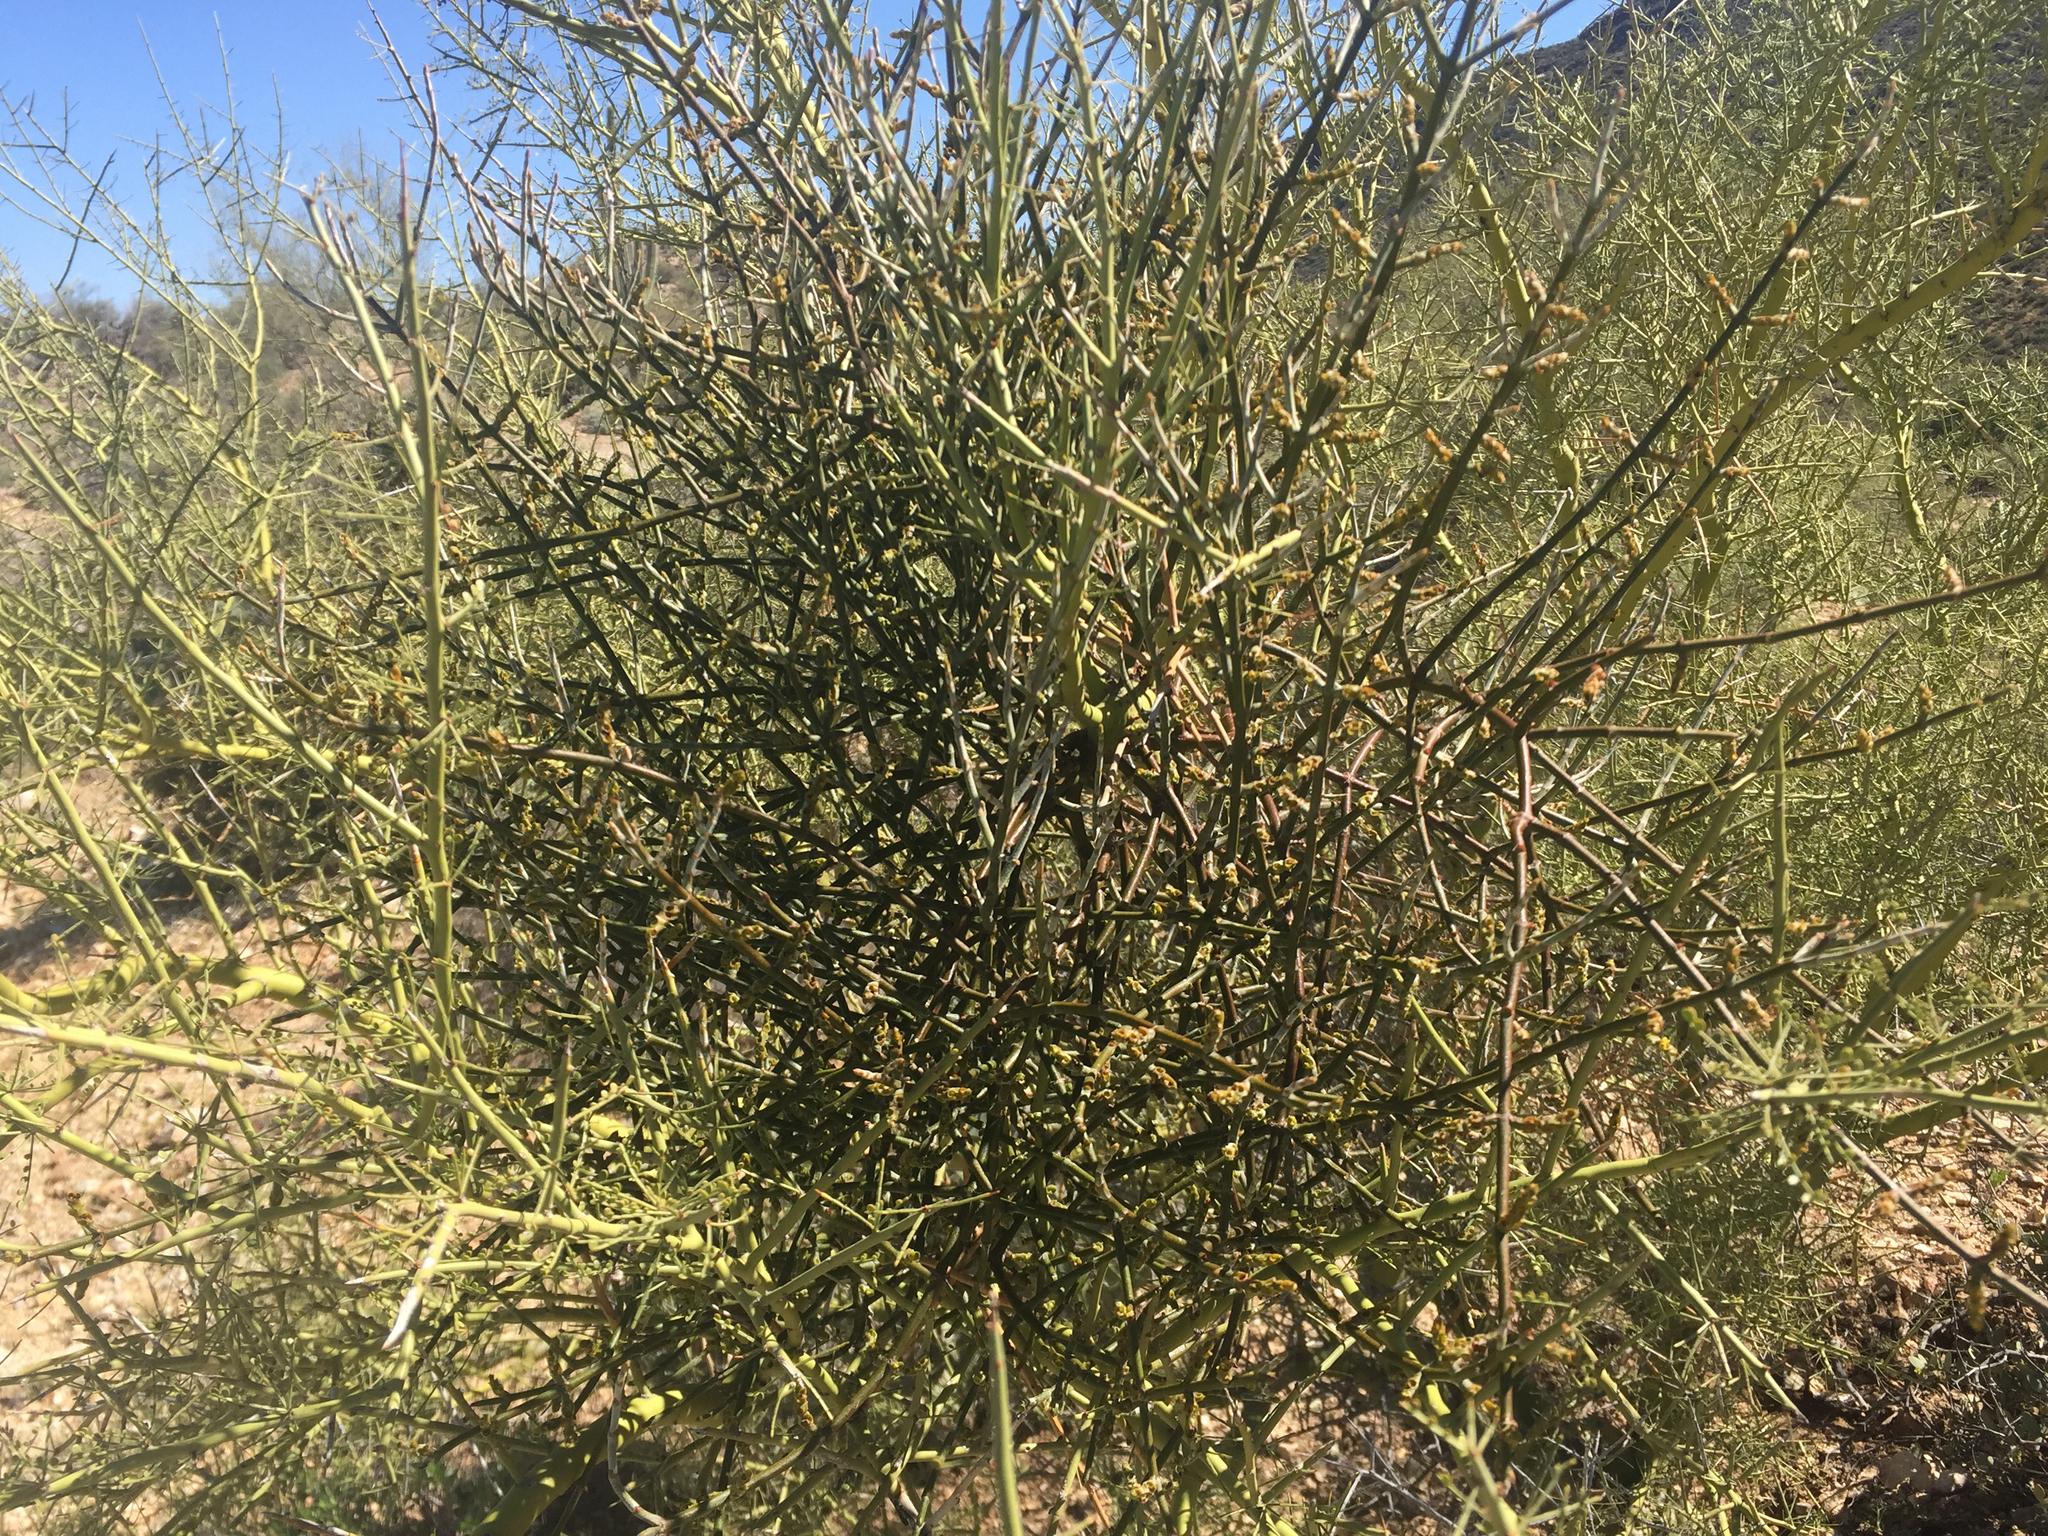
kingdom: Plantae
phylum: Tracheophyta
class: Magnoliopsida
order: Santalales
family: Viscaceae
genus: Phoradendron
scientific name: Phoradendron californicum
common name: Acacia mistletoe
